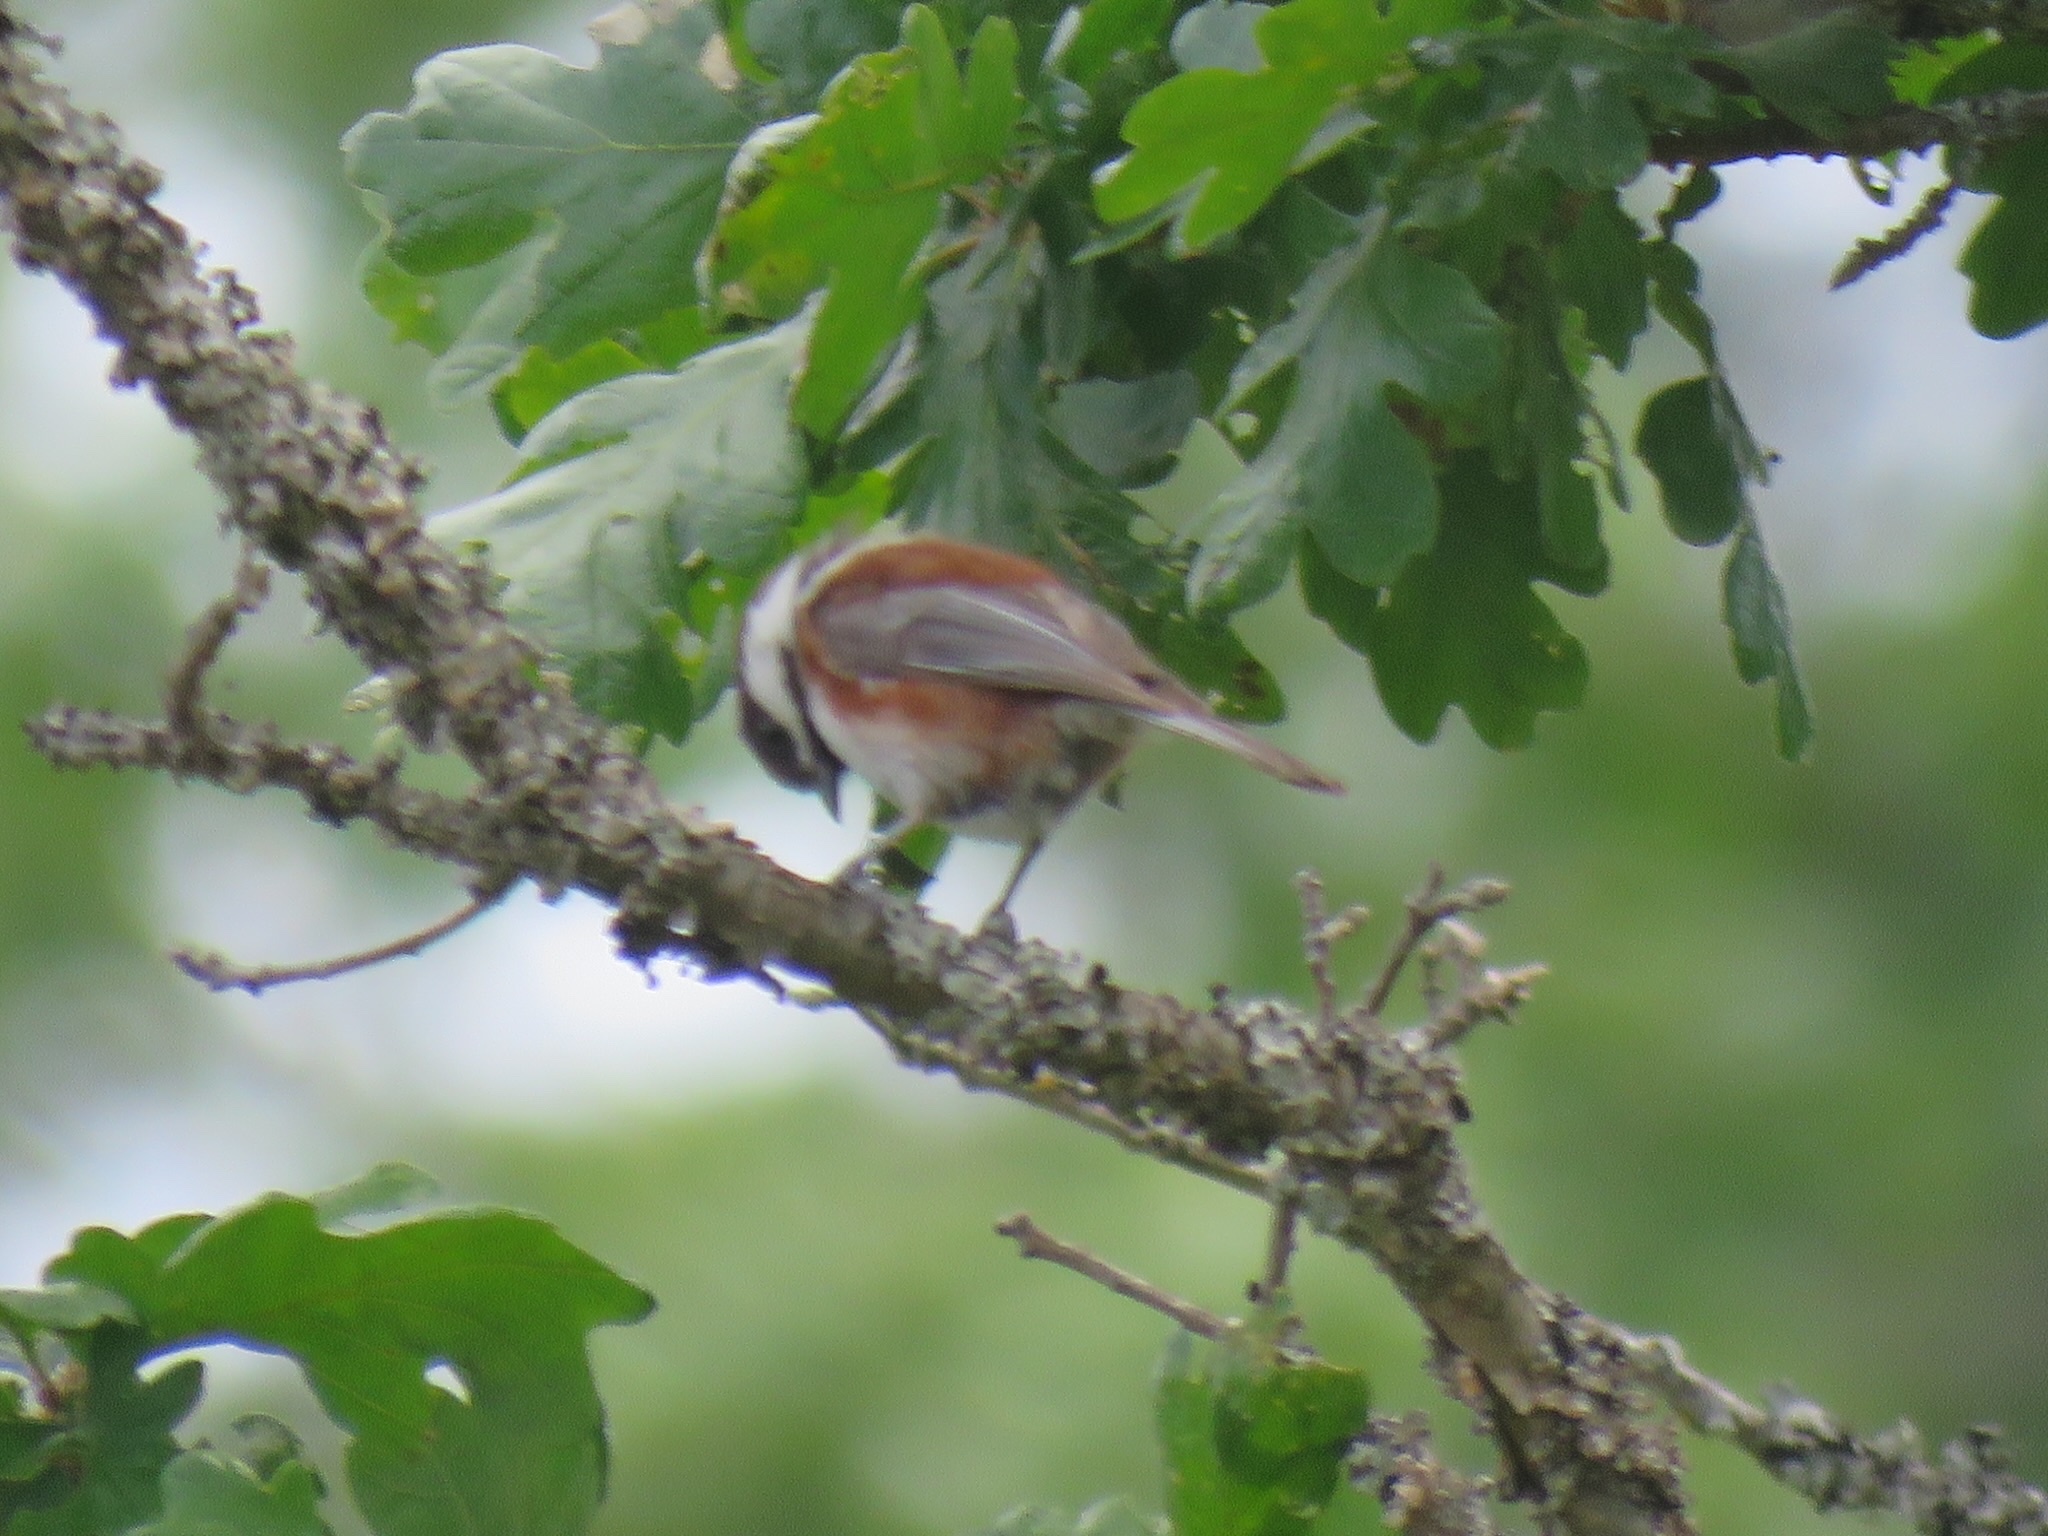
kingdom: Animalia
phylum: Chordata
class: Aves
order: Passeriformes
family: Paridae
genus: Poecile
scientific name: Poecile rufescens
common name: Chestnut-backed chickadee
